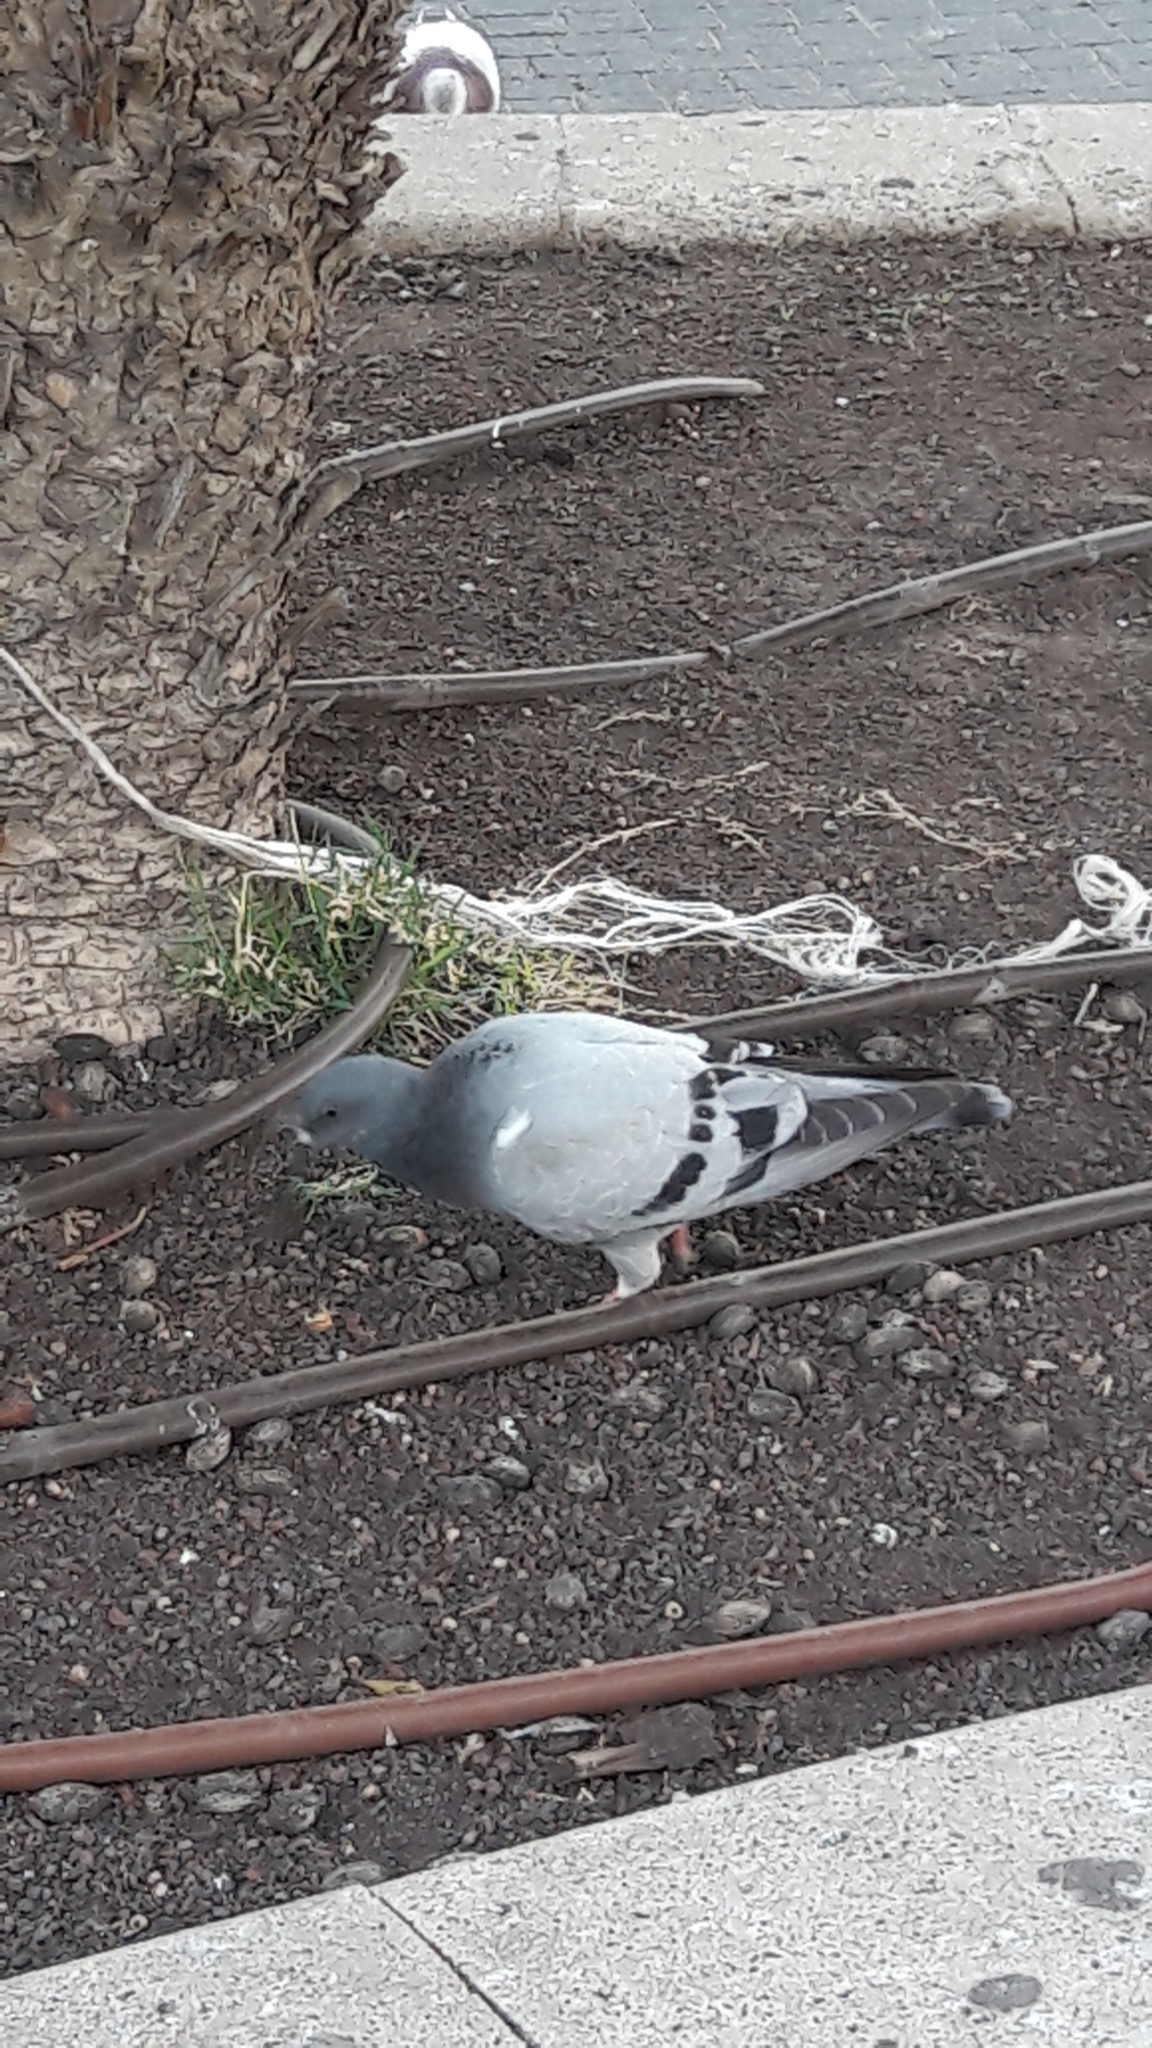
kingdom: Animalia
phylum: Chordata
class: Aves
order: Columbiformes
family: Columbidae
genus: Columba
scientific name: Columba livia
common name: Rock pigeon
